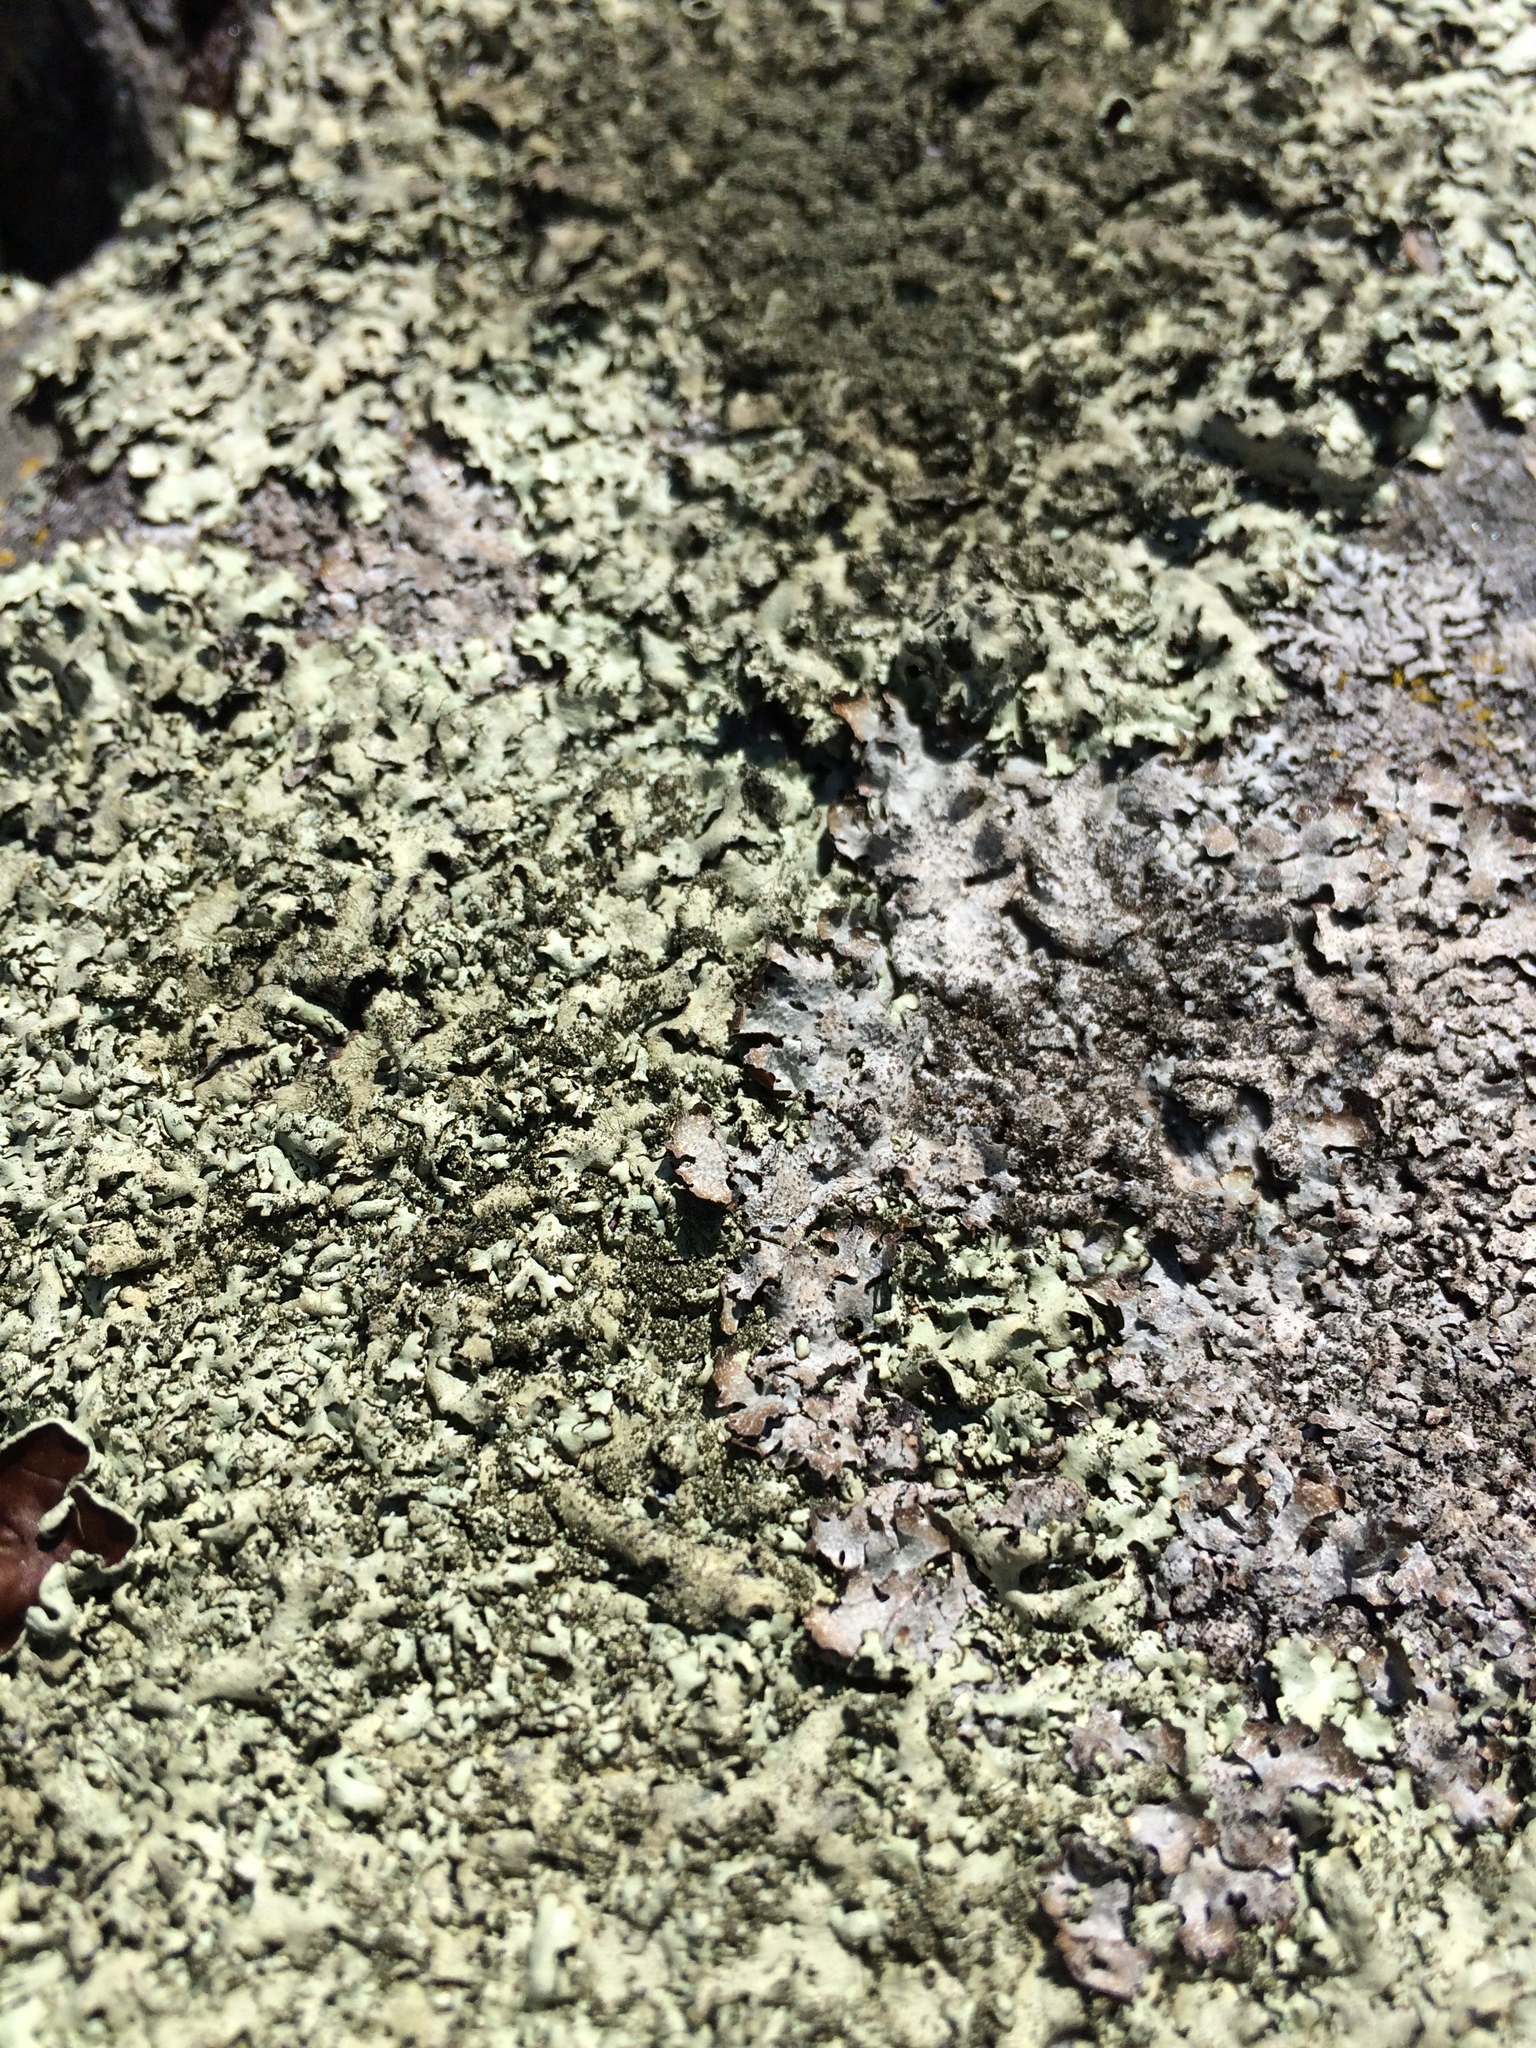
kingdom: Fungi
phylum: Ascomycota
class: Lecanoromycetes
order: Lecanorales
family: Parmeliaceae
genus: Xanthoparmelia
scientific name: Xanthoparmelia conspersa
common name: Peppered rock shield
